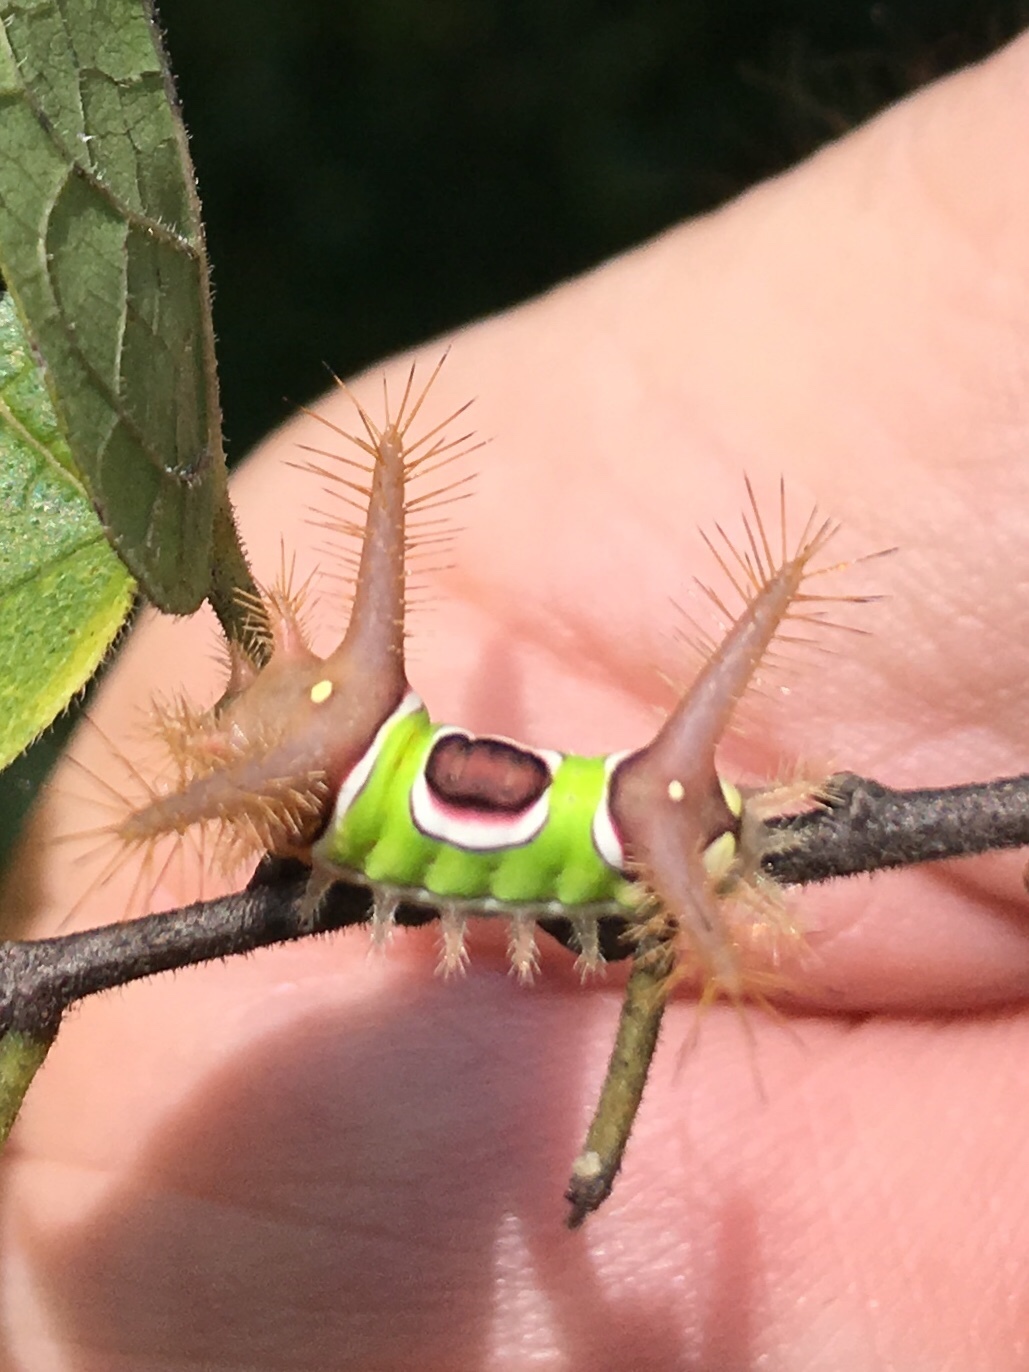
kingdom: Animalia
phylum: Arthropoda
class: Insecta
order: Lepidoptera
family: Limacodidae
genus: Acharia
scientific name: Acharia stimulea
